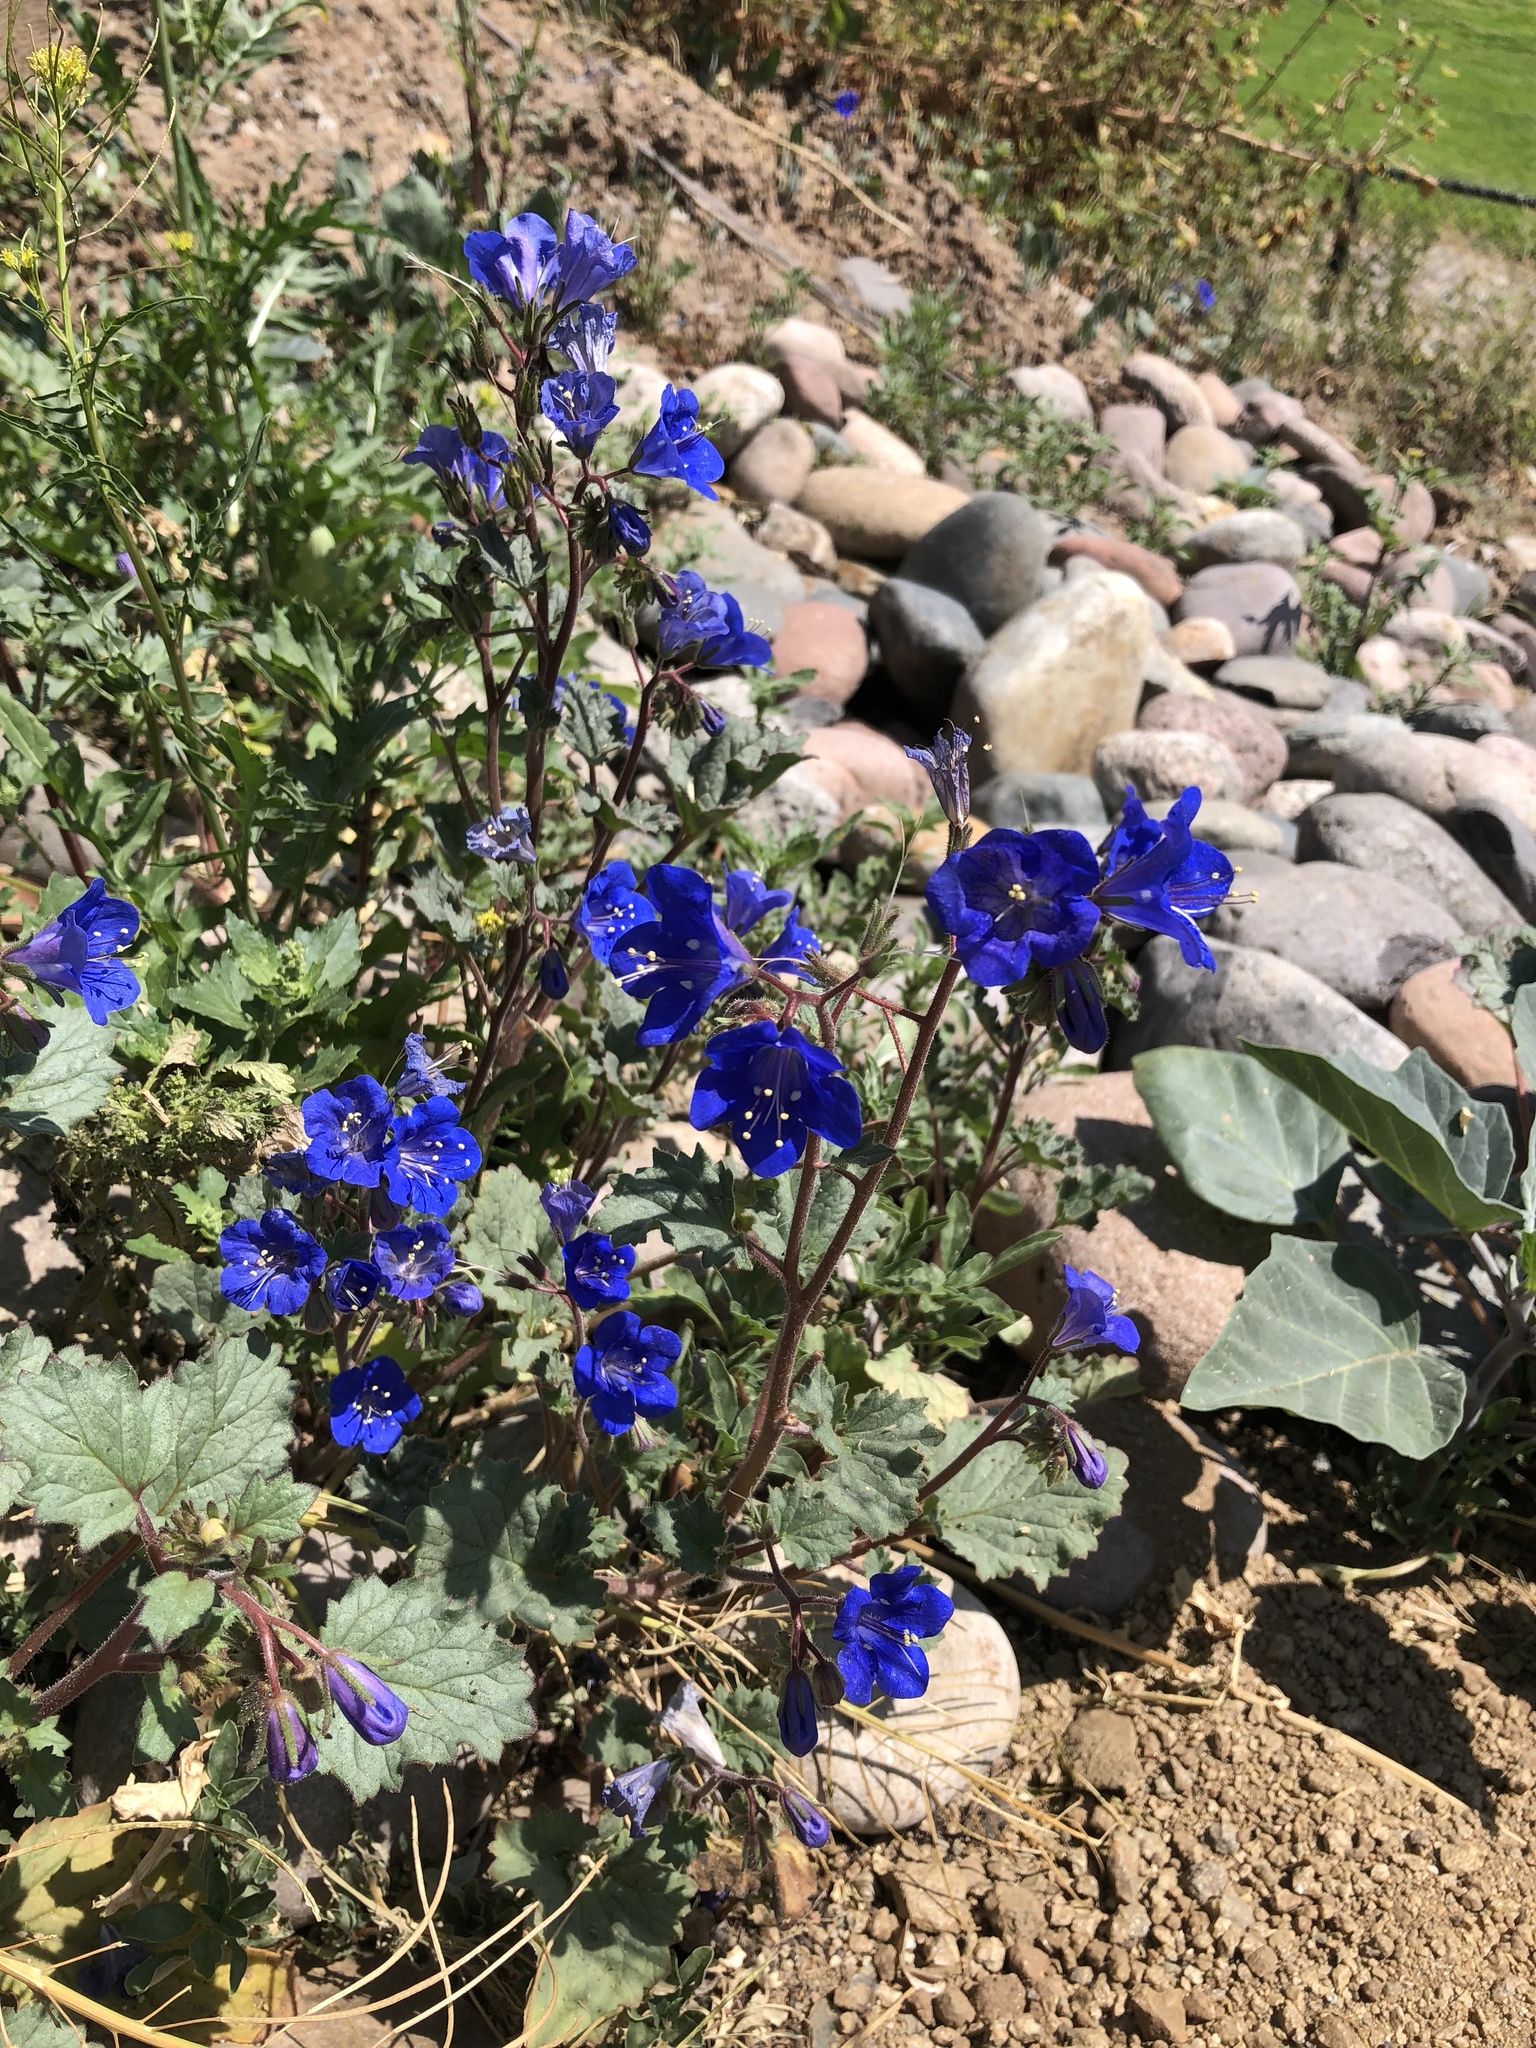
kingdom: Plantae
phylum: Tracheophyta
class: Magnoliopsida
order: Boraginales
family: Hydrophyllaceae
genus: Phacelia
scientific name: Phacelia campanularia
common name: California bluebell
